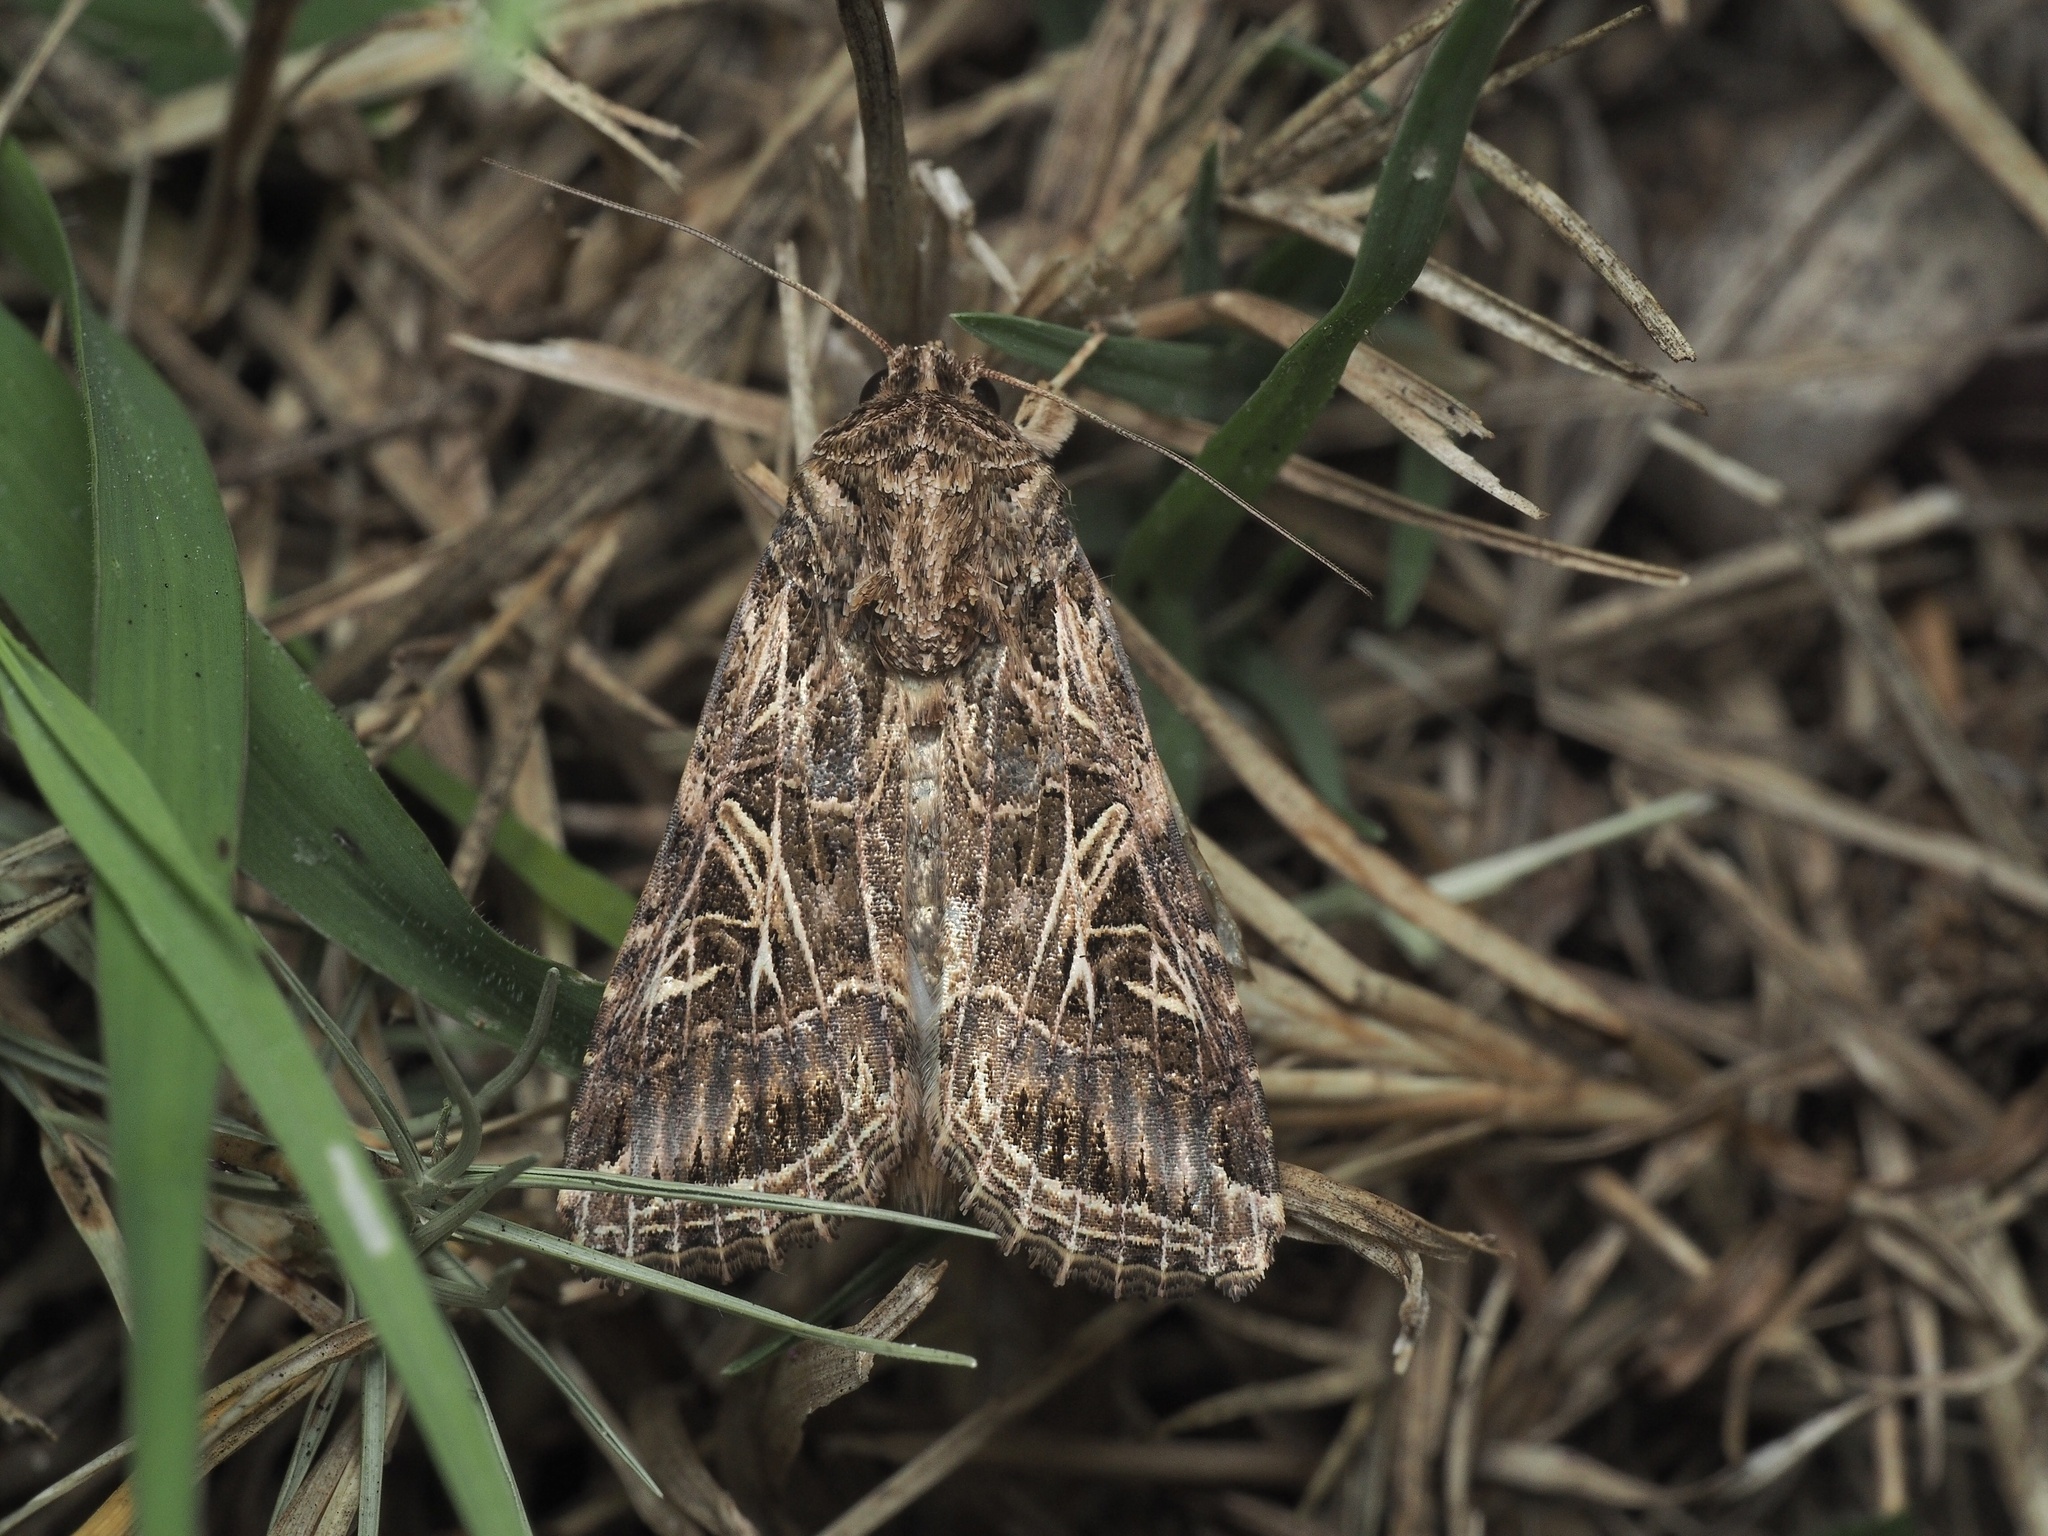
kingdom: Animalia
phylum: Arthropoda
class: Insecta
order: Lepidoptera
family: Noctuidae
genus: Spodoptera
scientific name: Spodoptera littoralis
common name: Egyptian cotton leafworm
